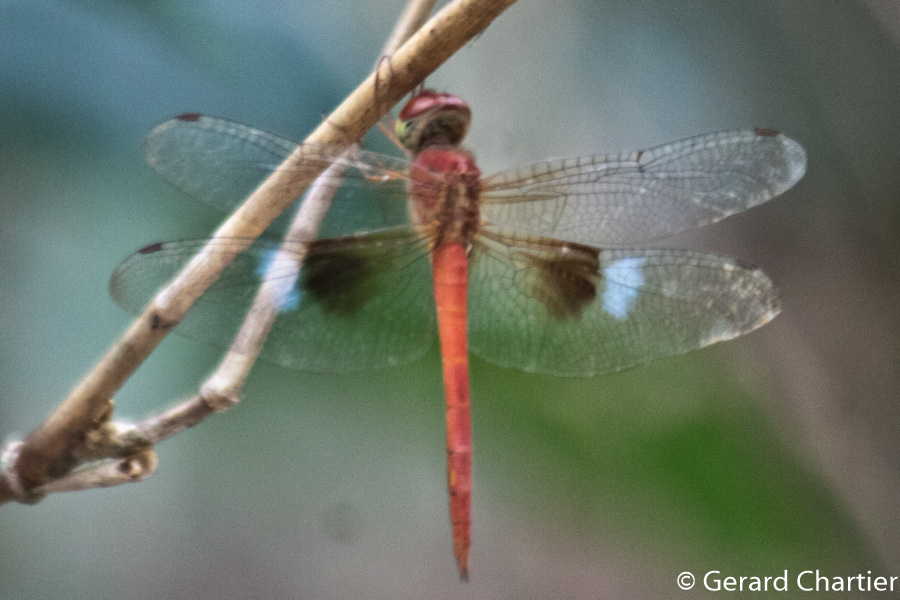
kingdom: Animalia
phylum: Arthropoda
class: Insecta
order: Odonata
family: Libellulidae
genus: Tholymis
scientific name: Tholymis tillarga
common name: Coral-tailed cloud wing
